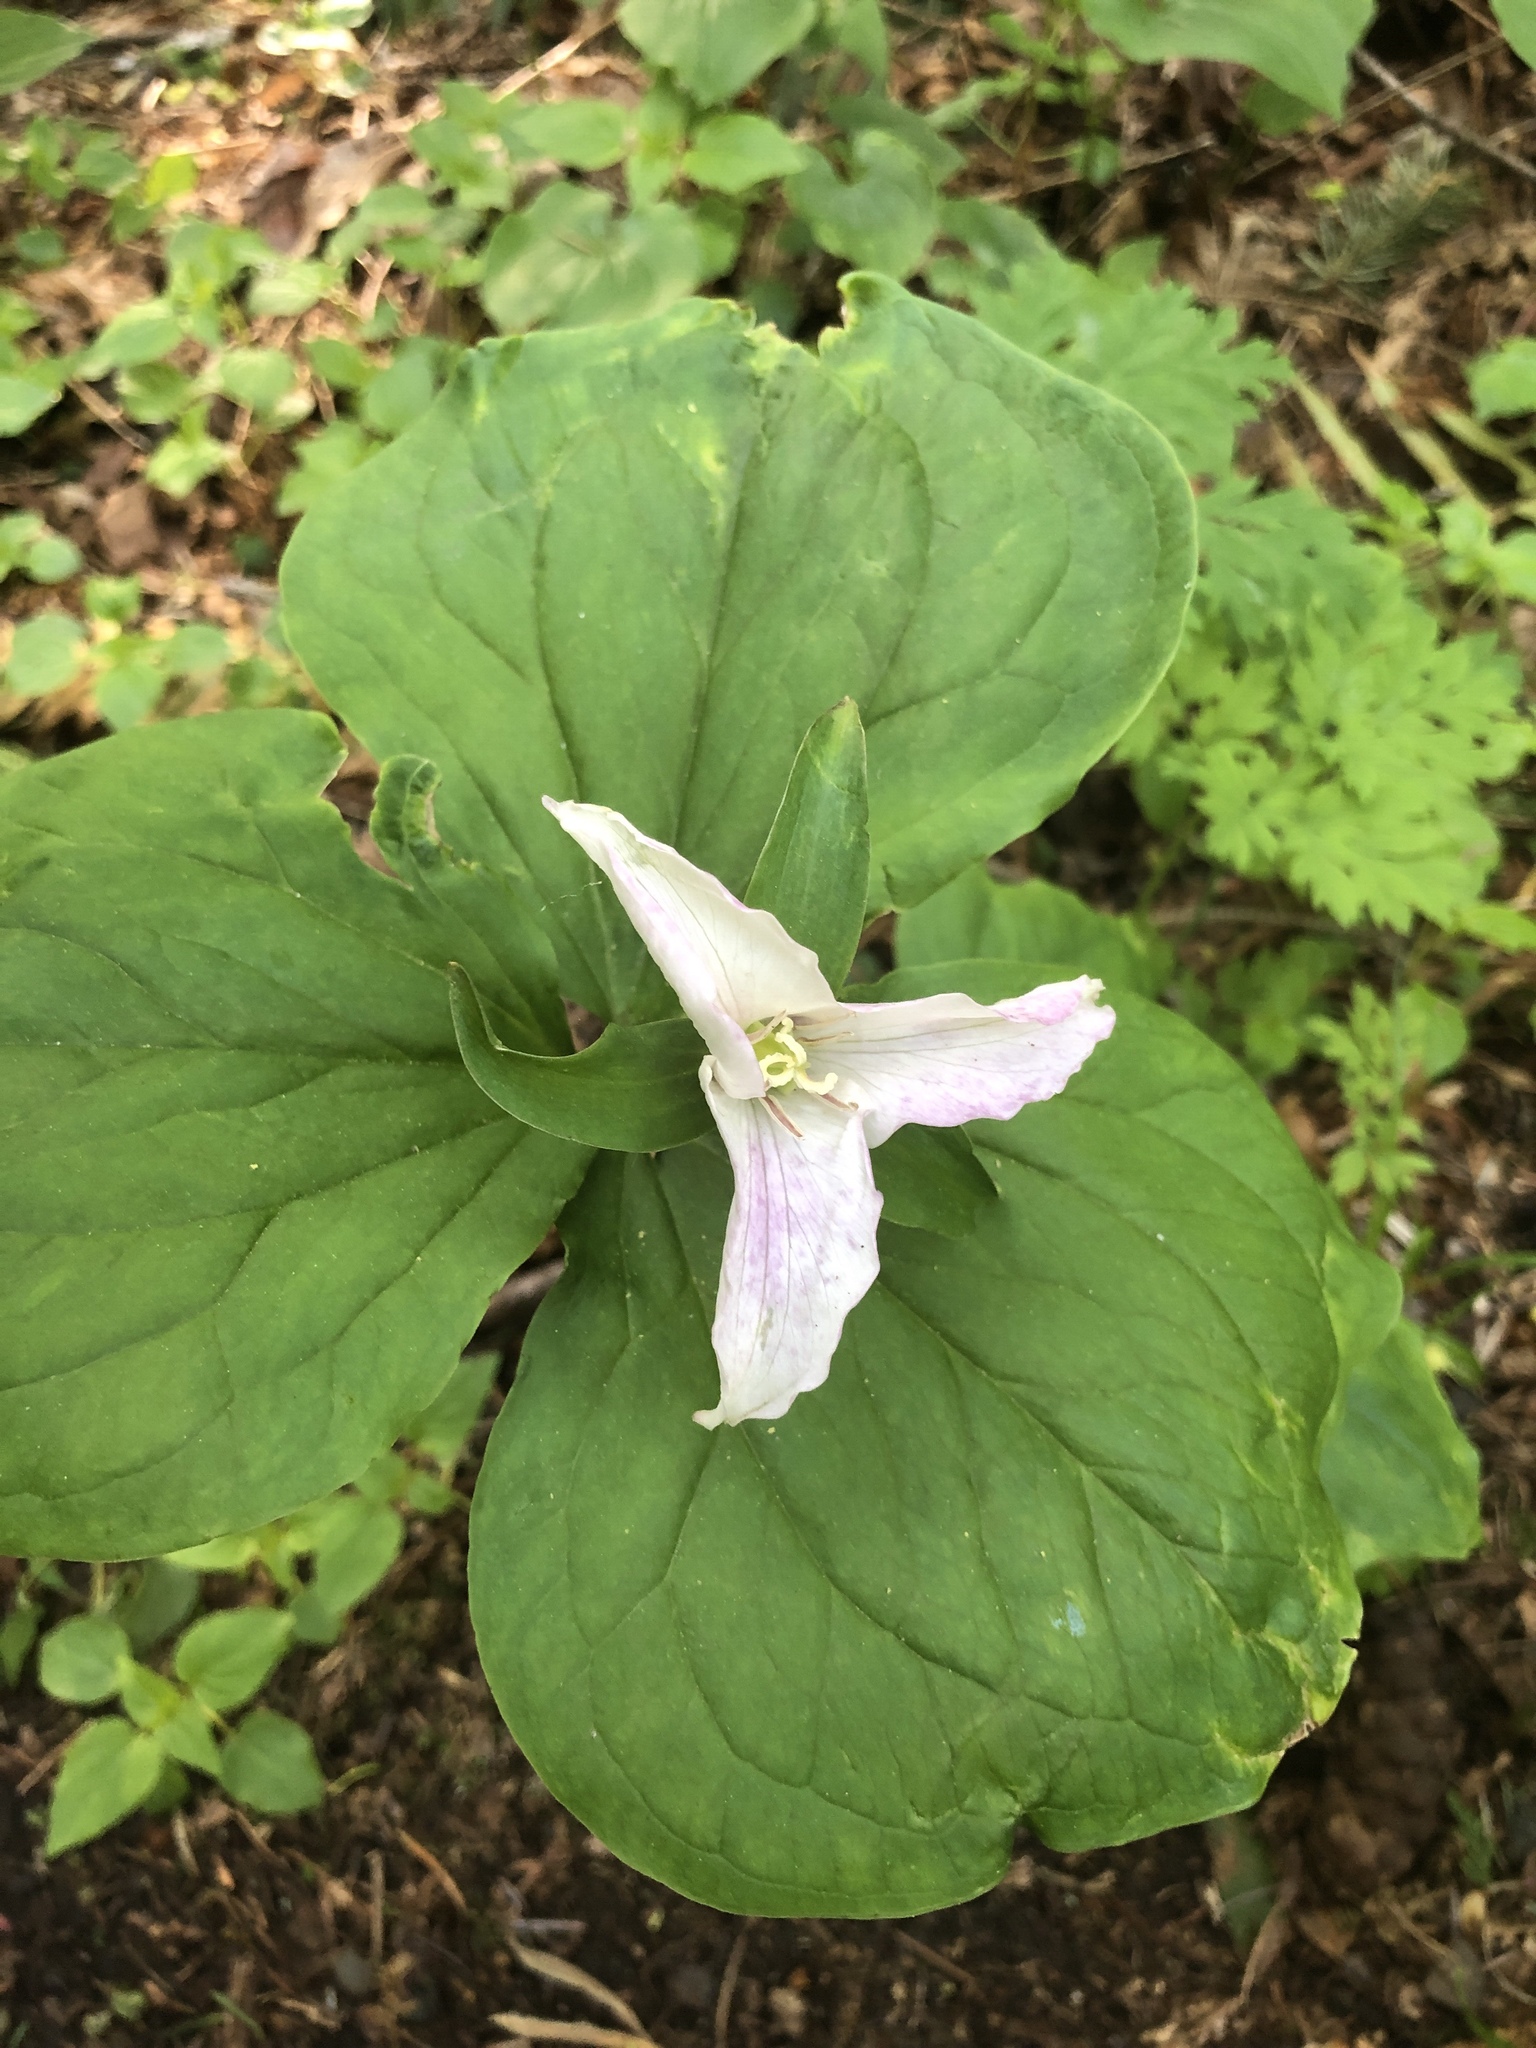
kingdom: Plantae
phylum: Tracheophyta
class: Liliopsida
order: Liliales
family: Melanthiaceae
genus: Trillium
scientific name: Trillium ovatum
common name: Pacific trillium
